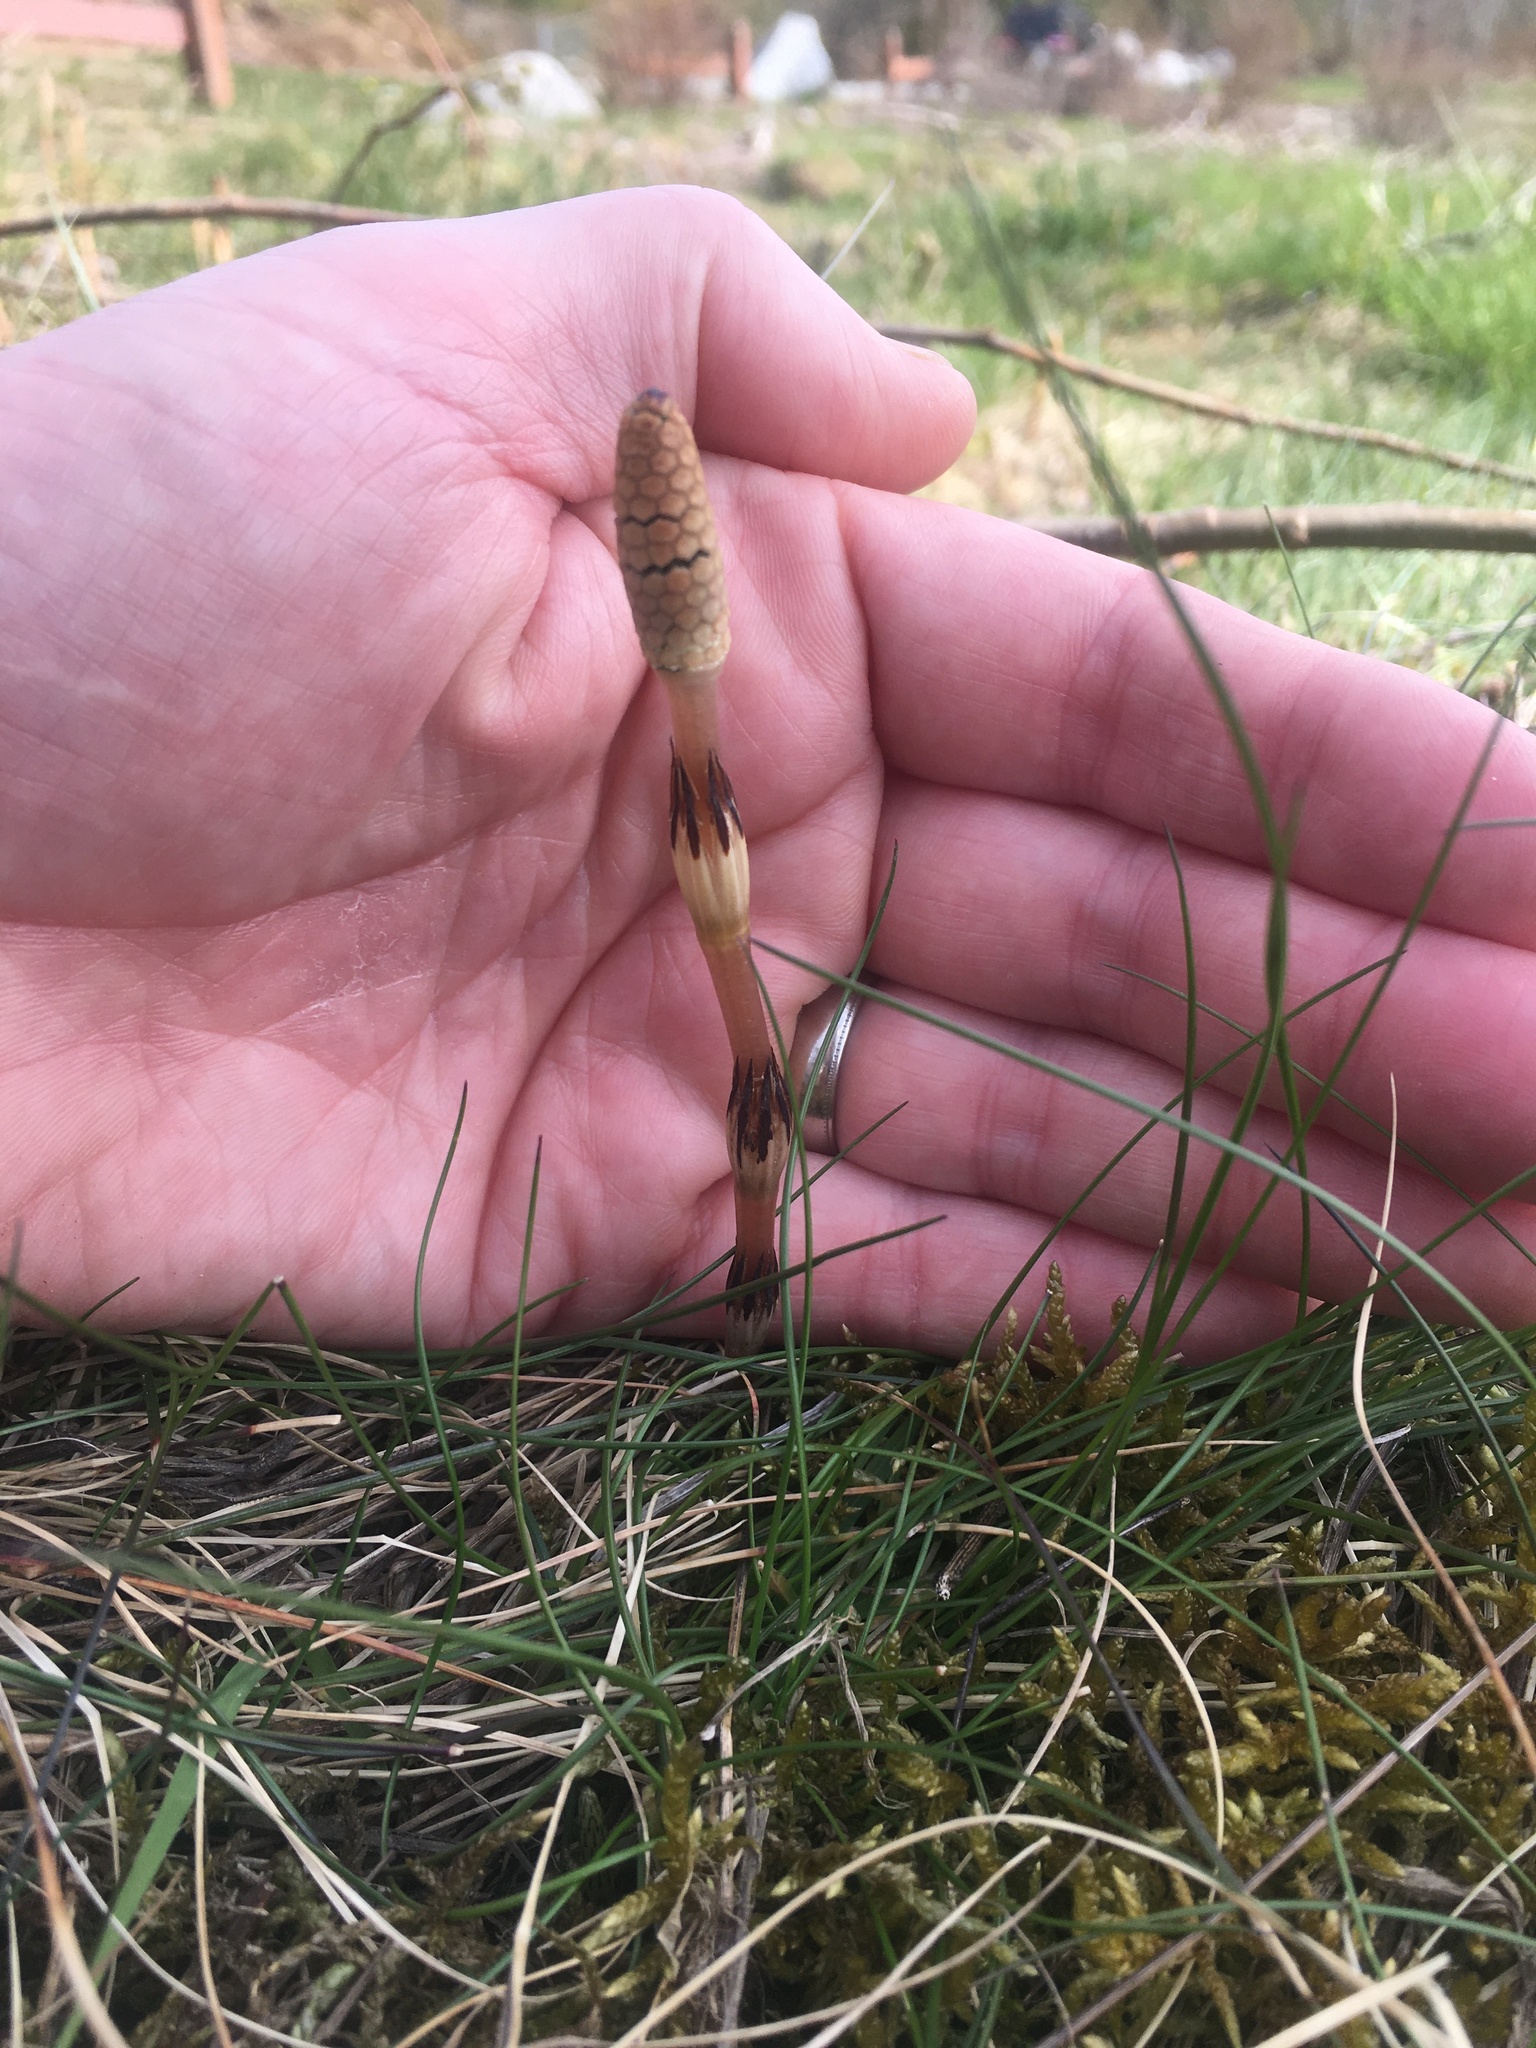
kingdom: Plantae
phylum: Tracheophyta
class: Polypodiopsida
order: Equisetales
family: Equisetaceae
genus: Equisetum
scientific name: Equisetum arvense
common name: Field horsetail
